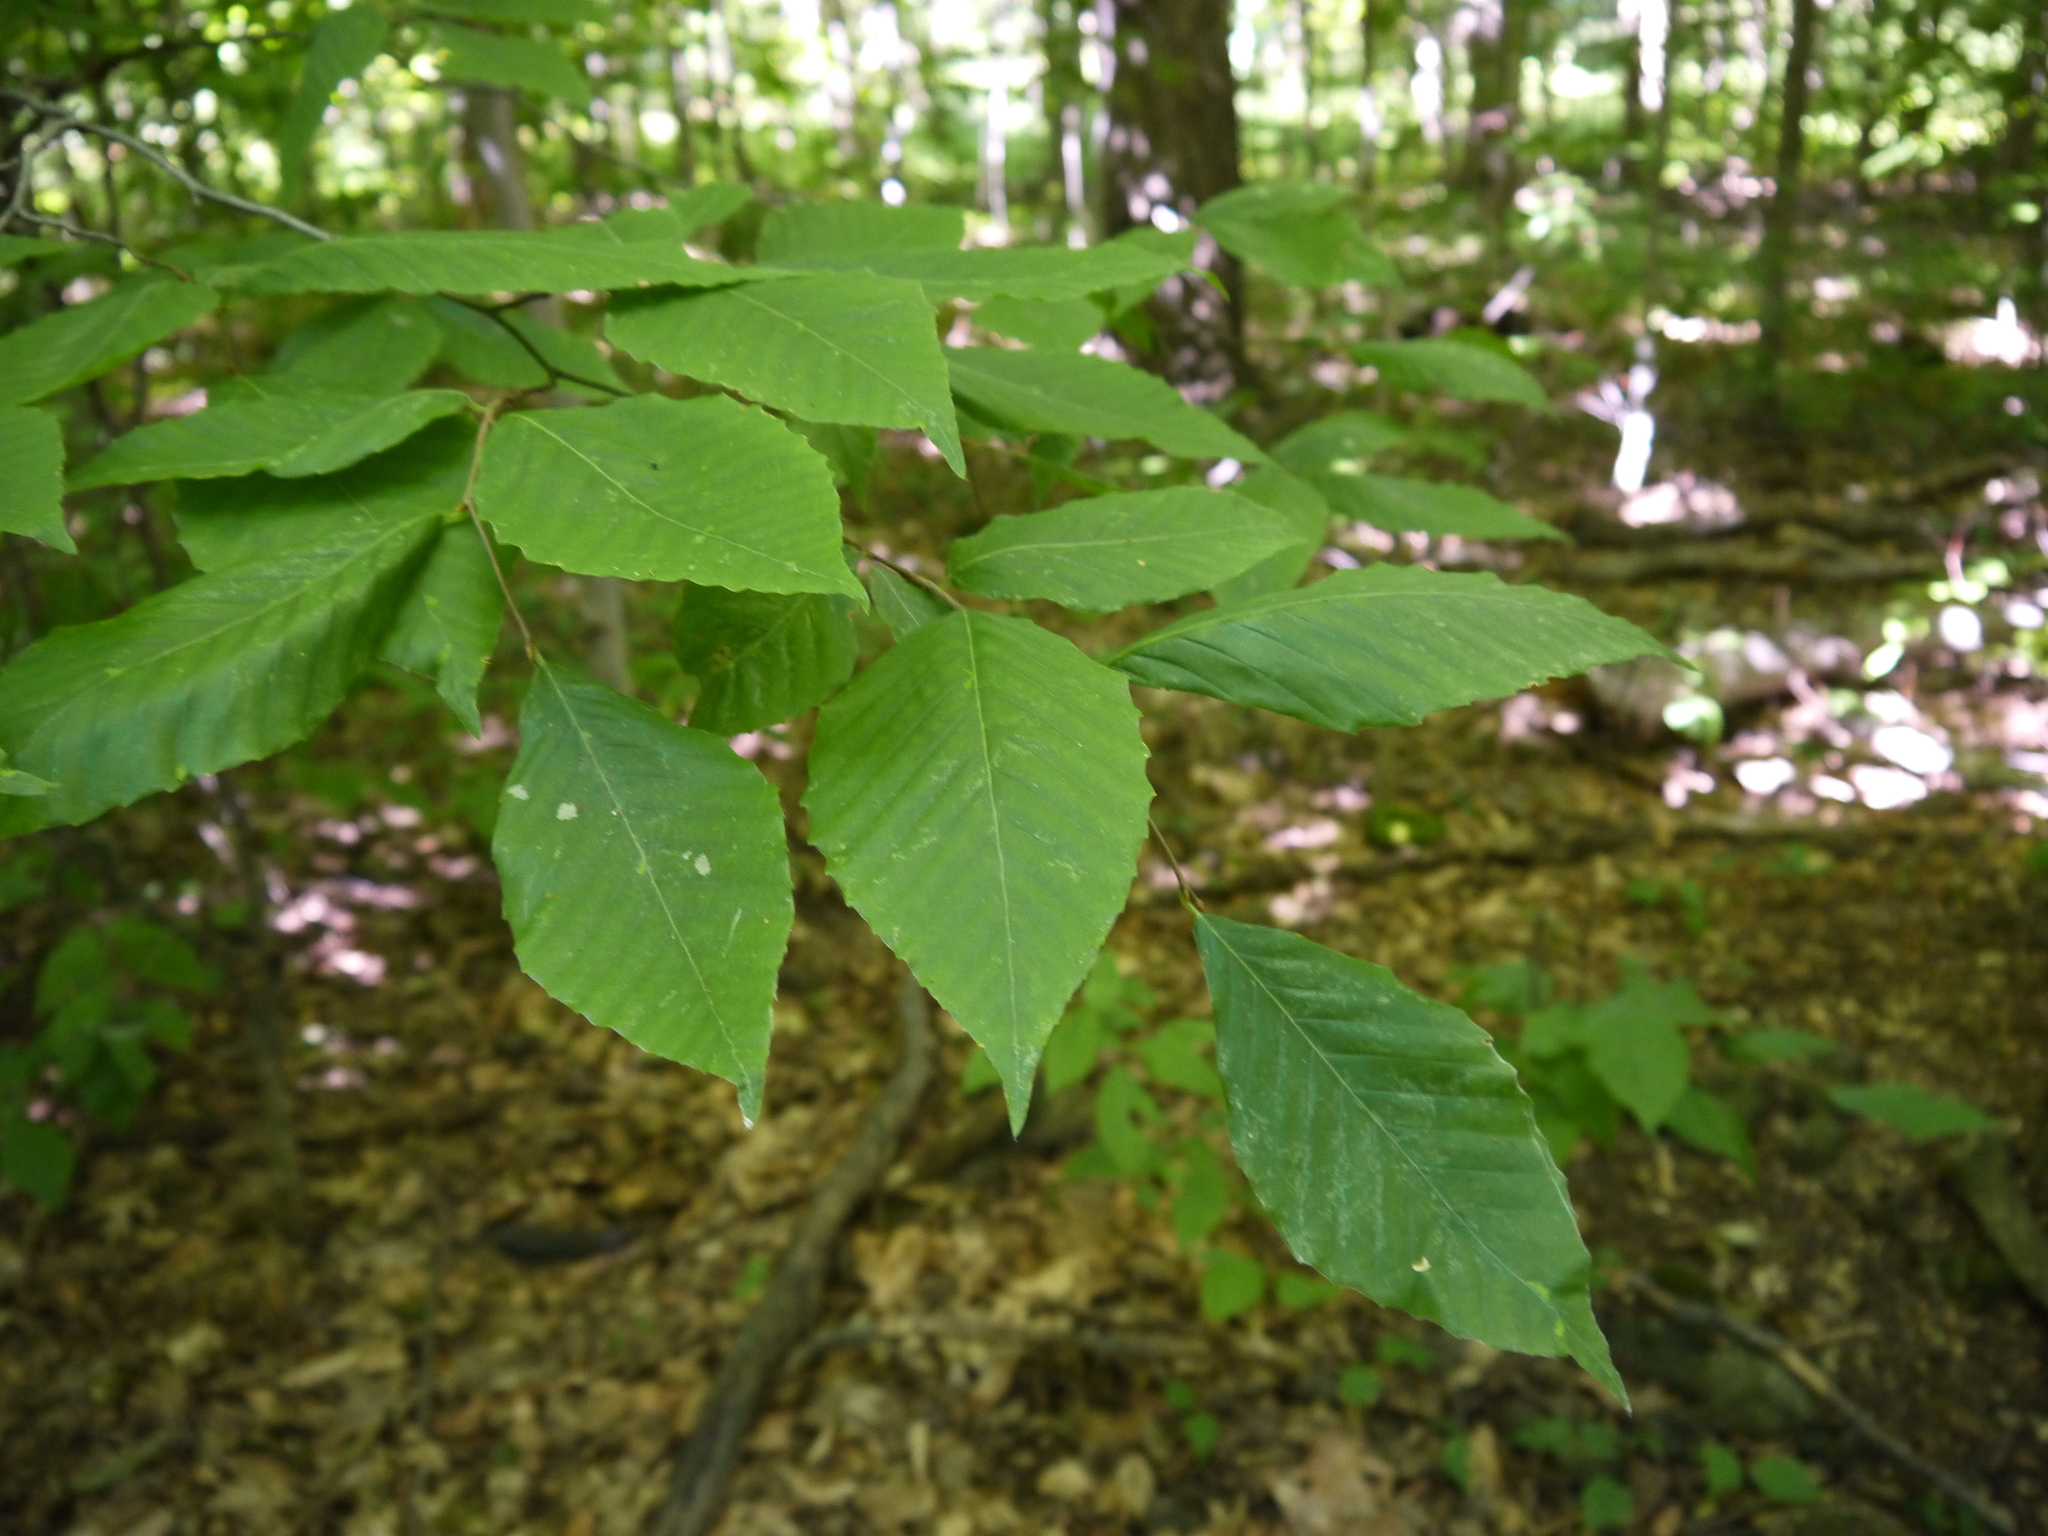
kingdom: Plantae
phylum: Tracheophyta
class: Magnoliopsida
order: Fagales
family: Fagaceae
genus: Fagus
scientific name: Fagus grandifolia
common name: American beech
